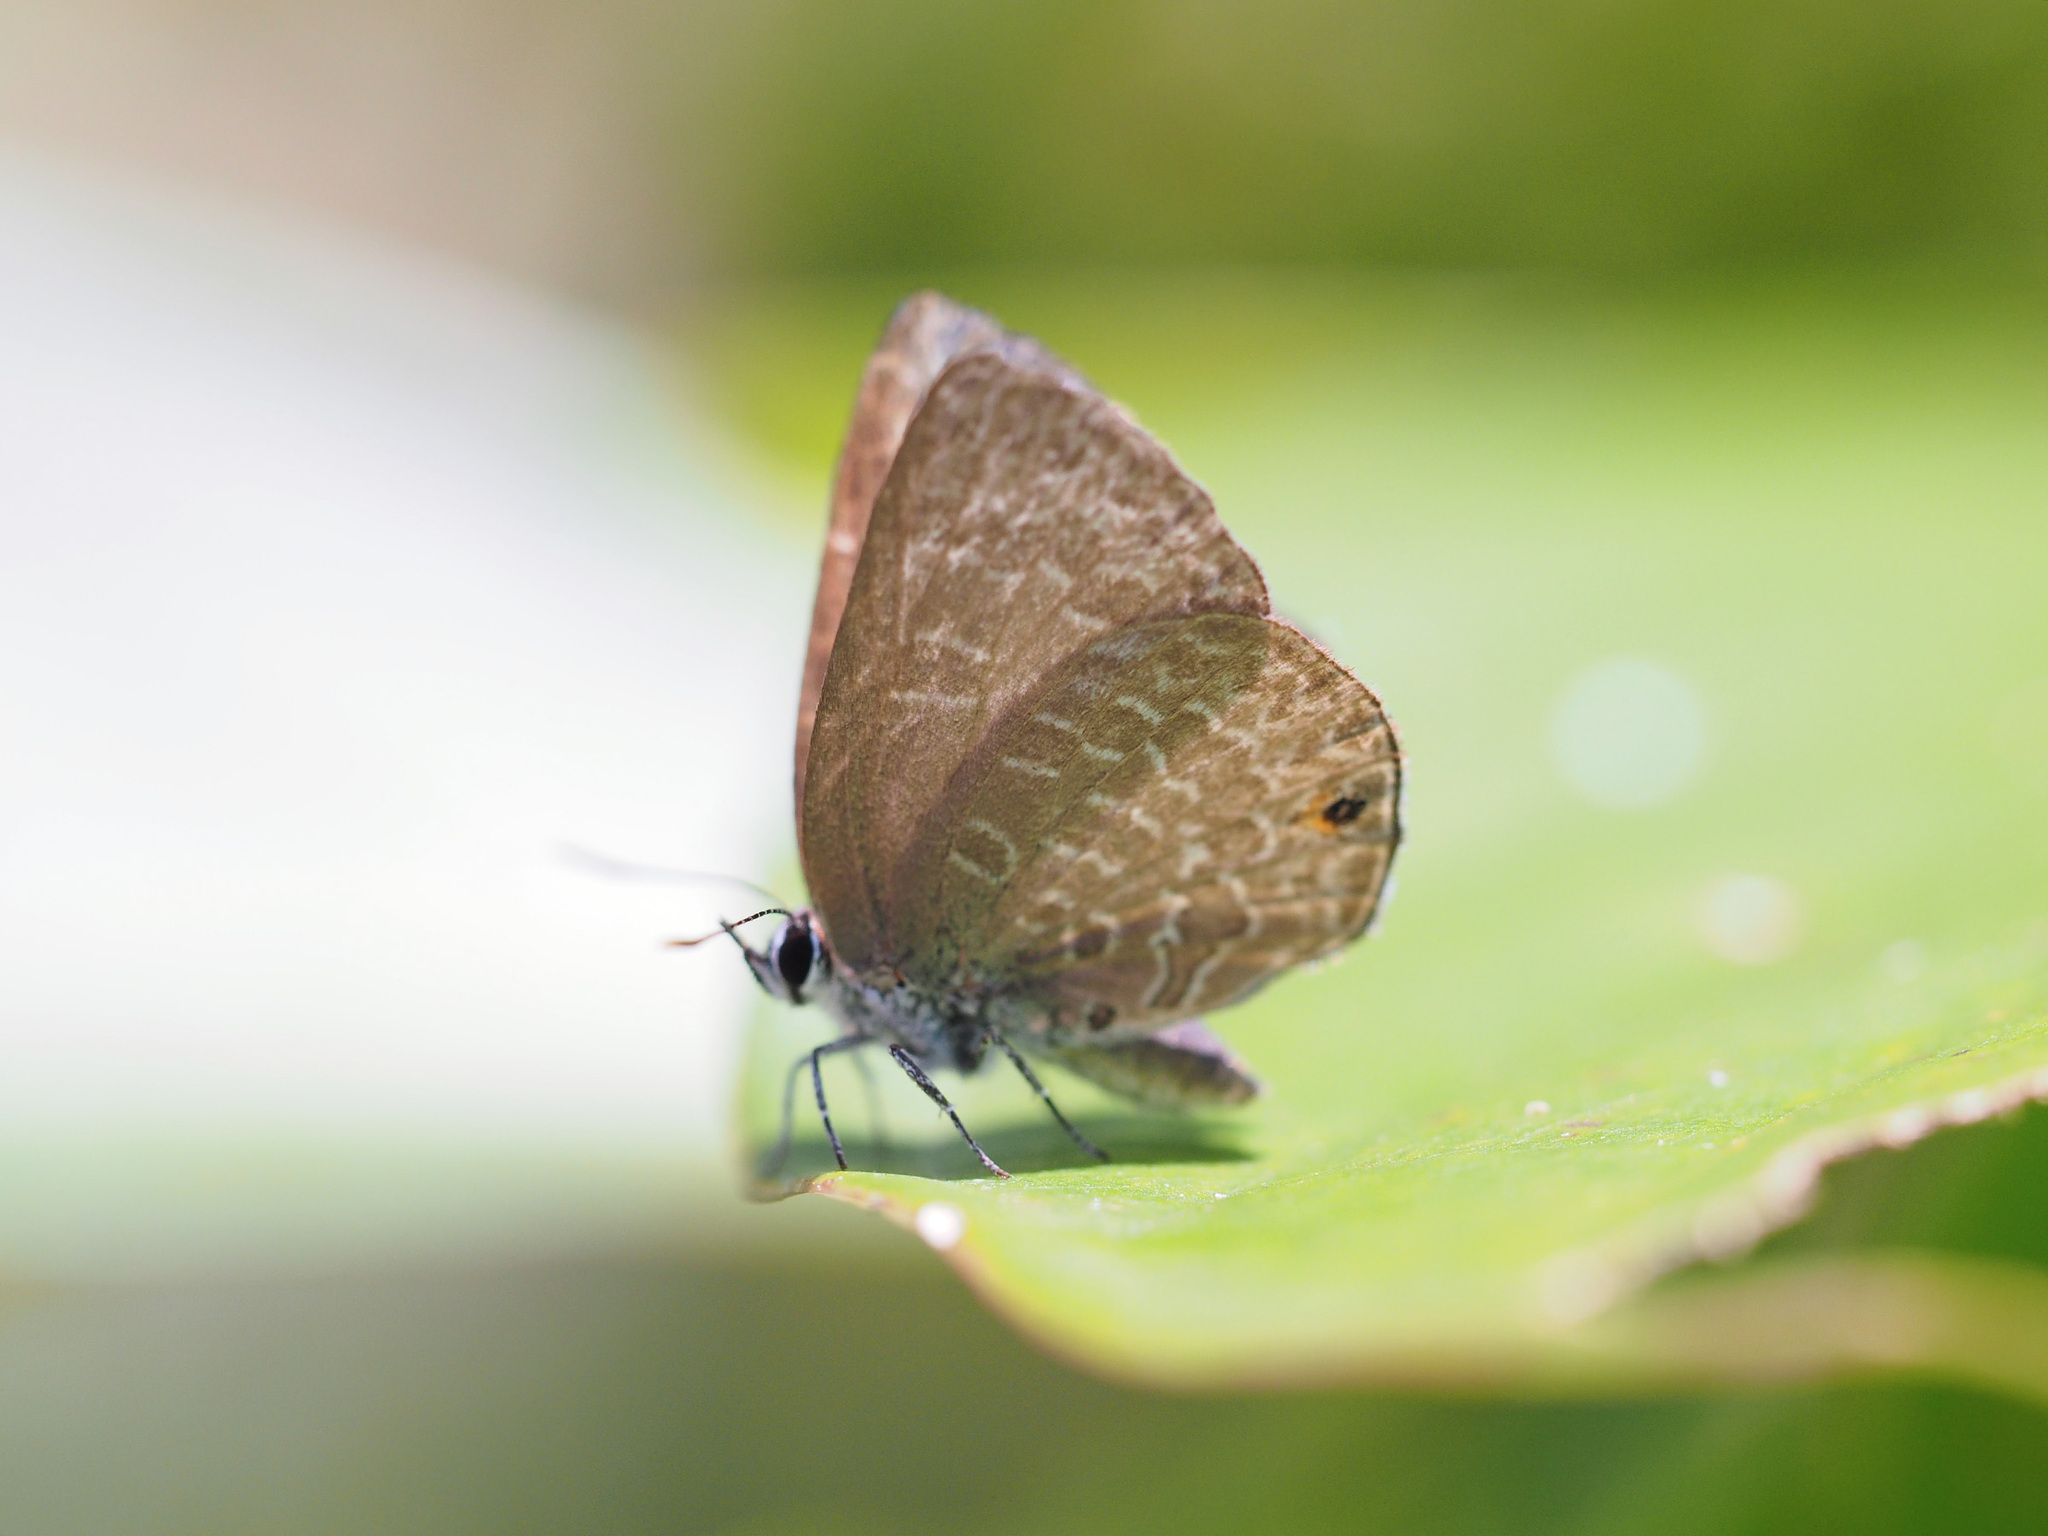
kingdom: Animalia
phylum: Arthropoda
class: Insecta
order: Lepidoptera
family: Lycaenidae
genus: Anthene
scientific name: Anthene emolus
